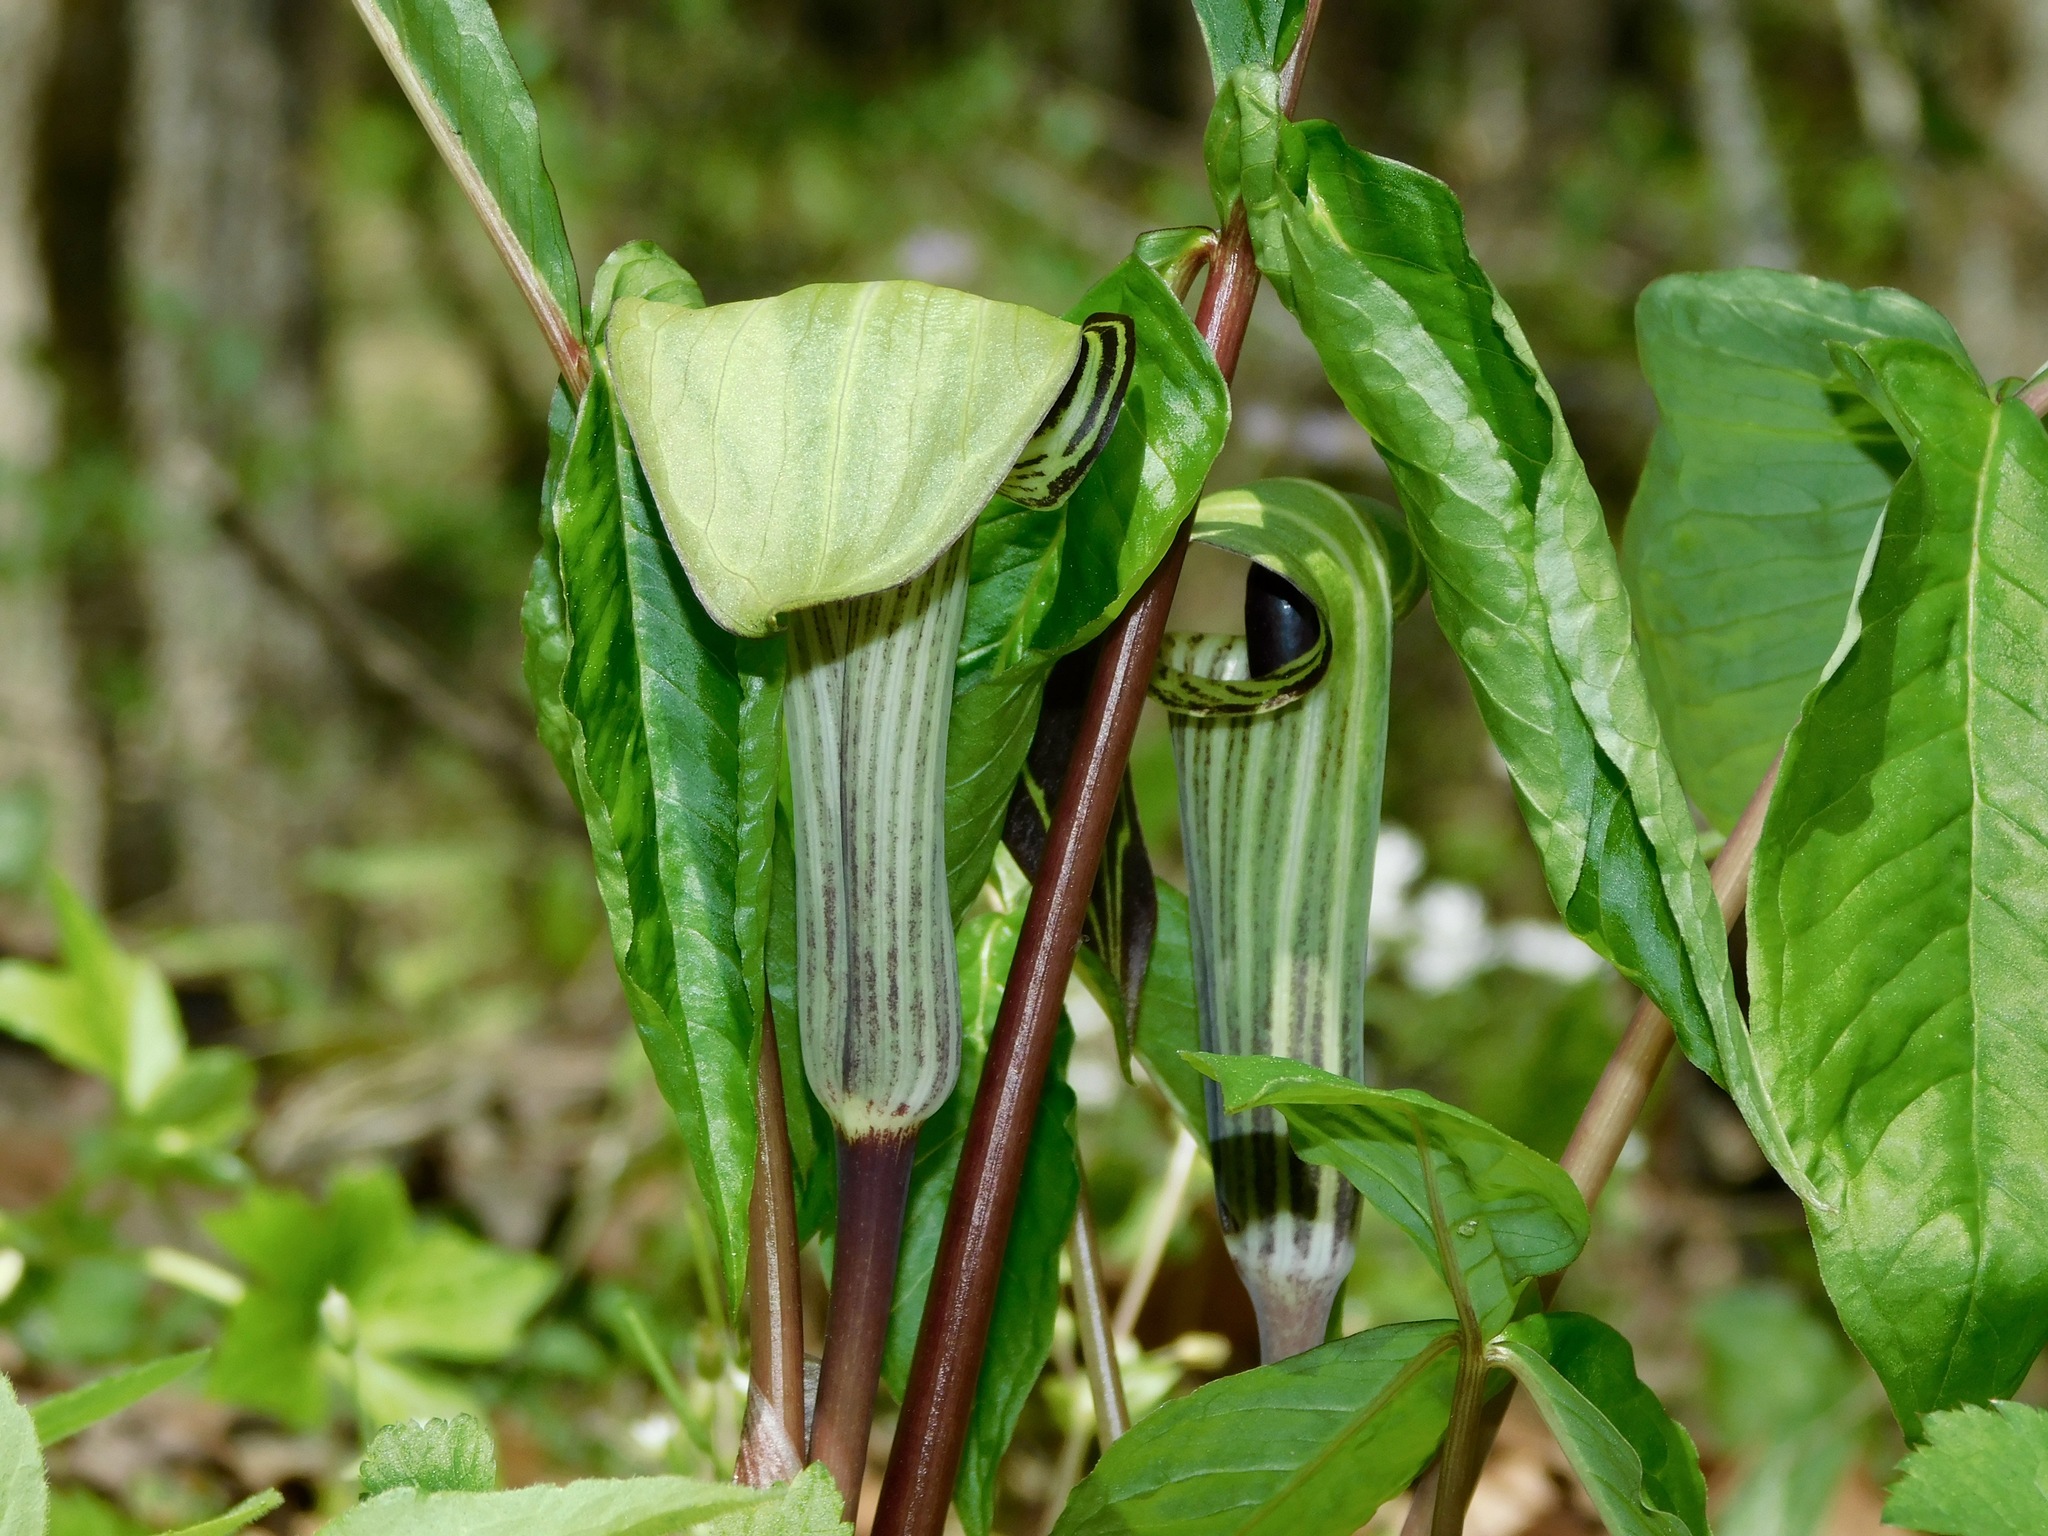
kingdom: Plantae
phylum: Tracheophyta
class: Liliopsida
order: Alismatales
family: Araceae
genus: Arisaema
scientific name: Arisaema triphyllum
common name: Jack-in-the-pulpit
